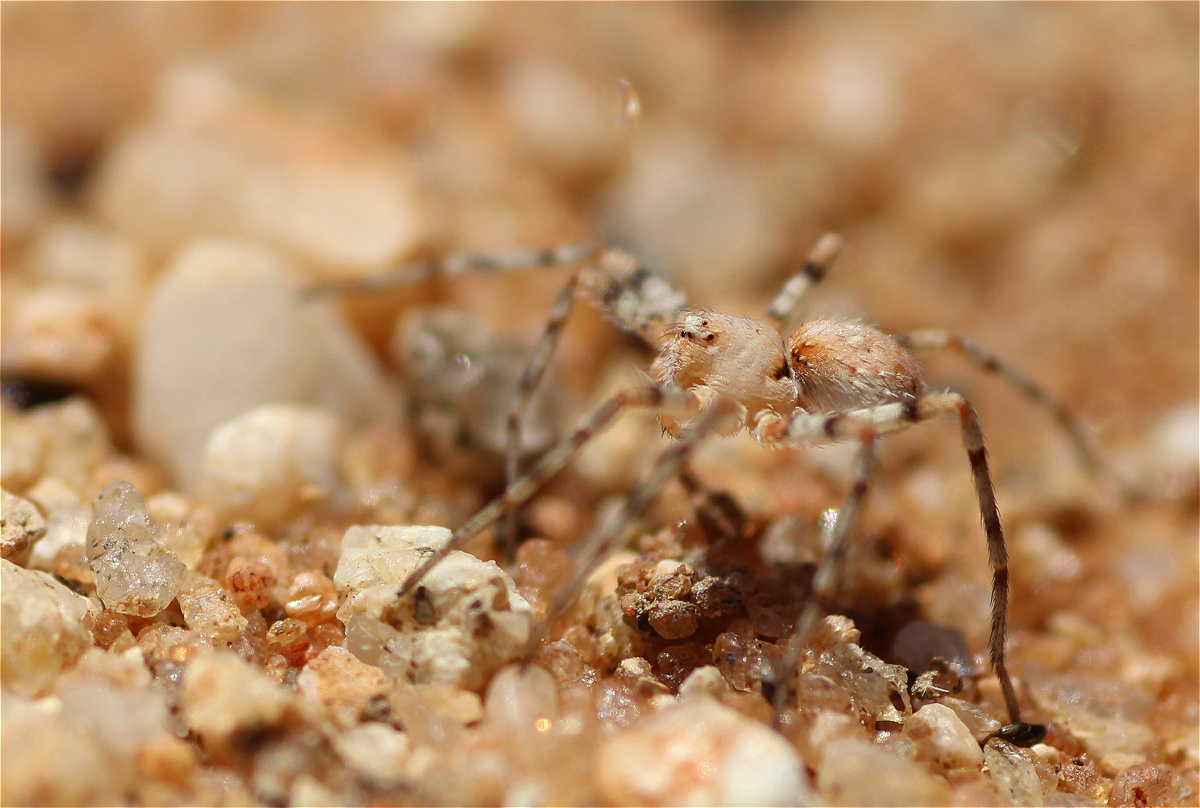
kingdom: Animalia
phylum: Arthropoda
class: Arachnida
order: Araneae
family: Philodromidae
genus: Hirriusa
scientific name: Hirriusa variegata
